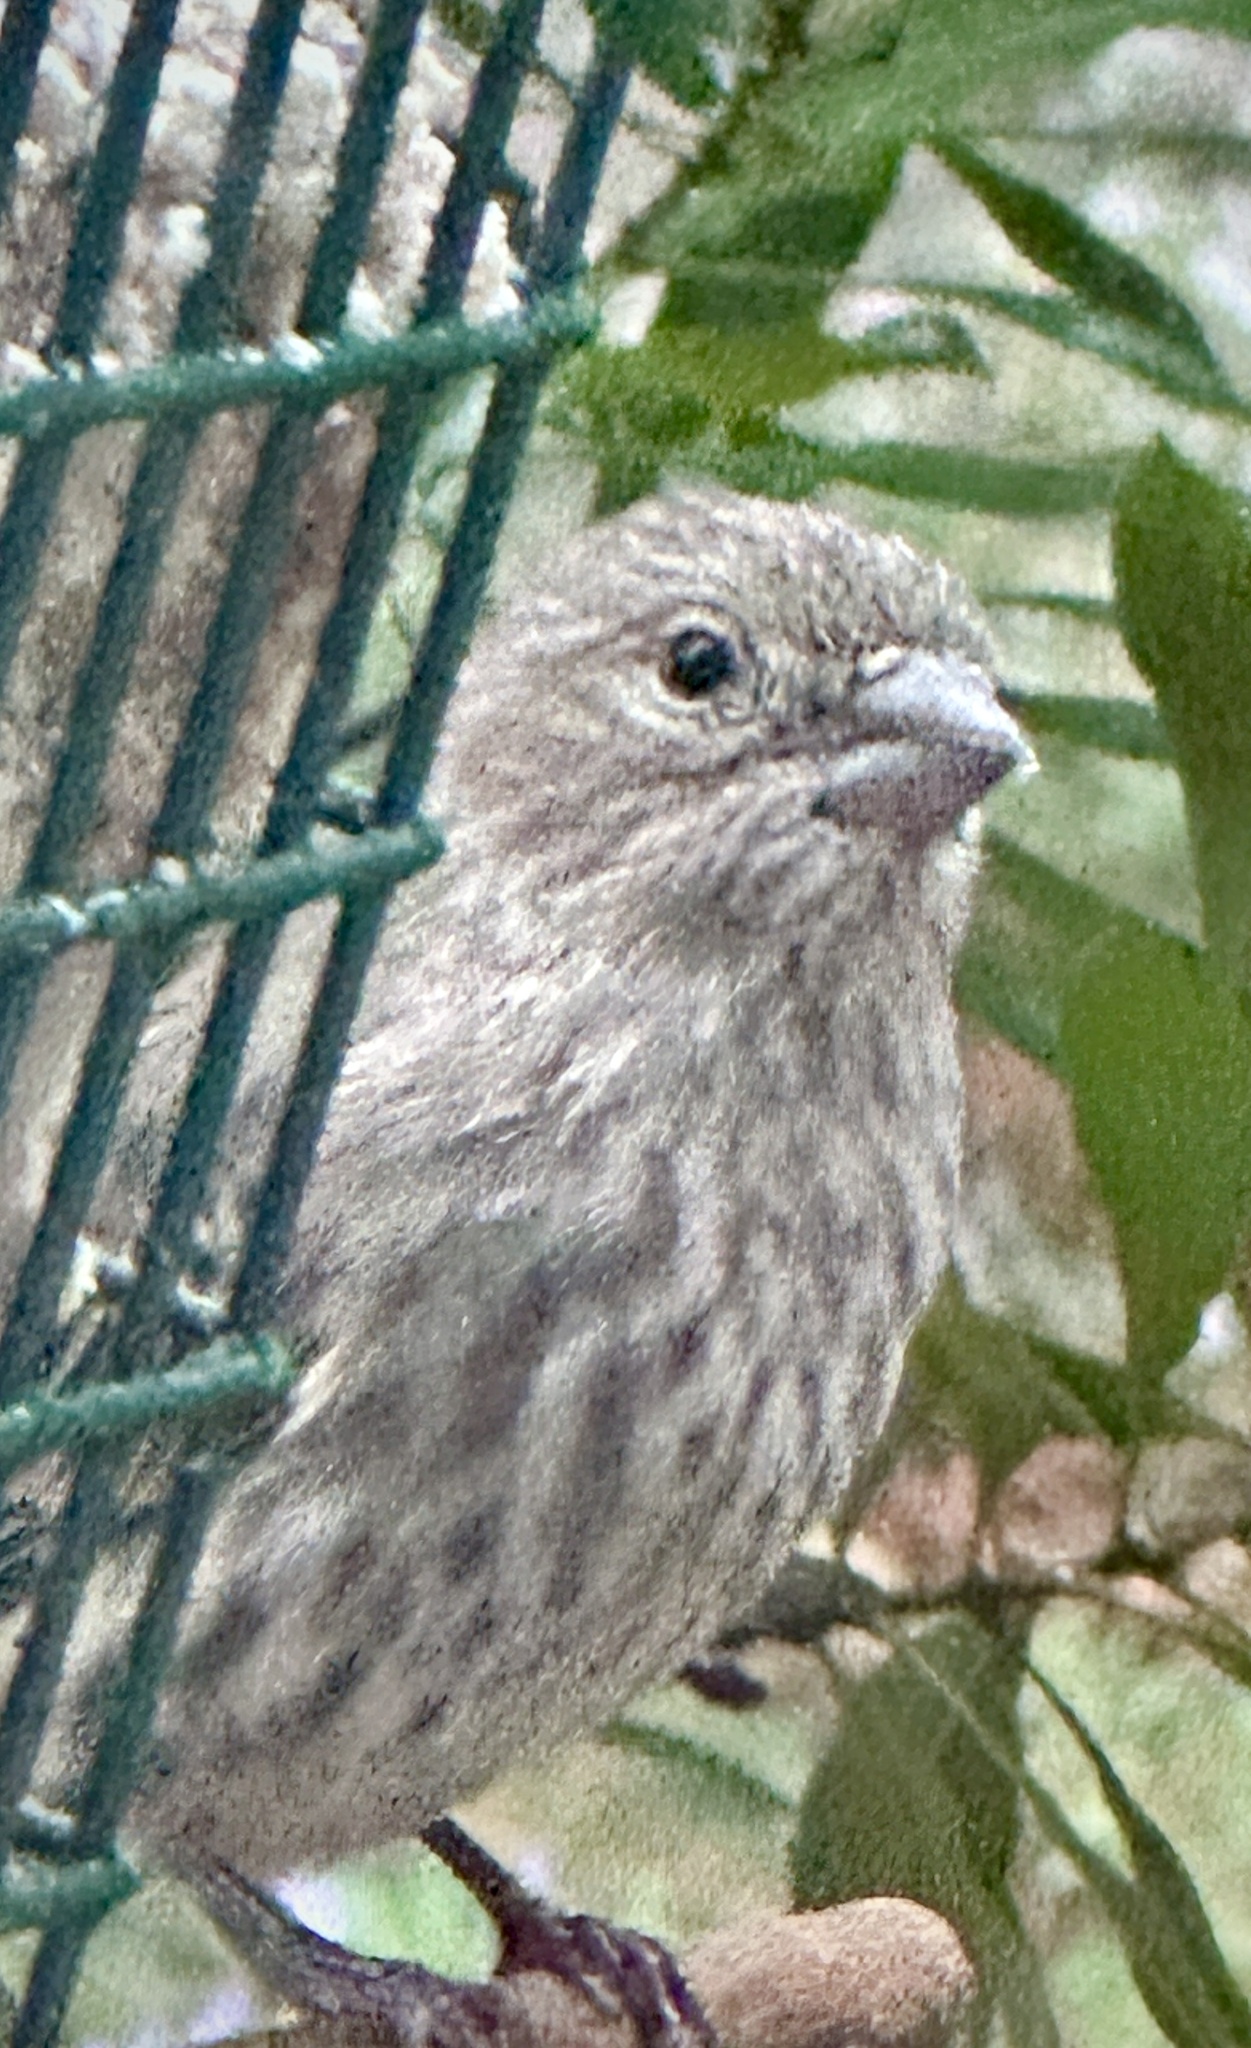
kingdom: Animalia
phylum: Chordata
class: Aves
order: Passeriformes
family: Fringillidae
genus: Haemorhous
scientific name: Haemorhous mexicanus
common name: House finch
